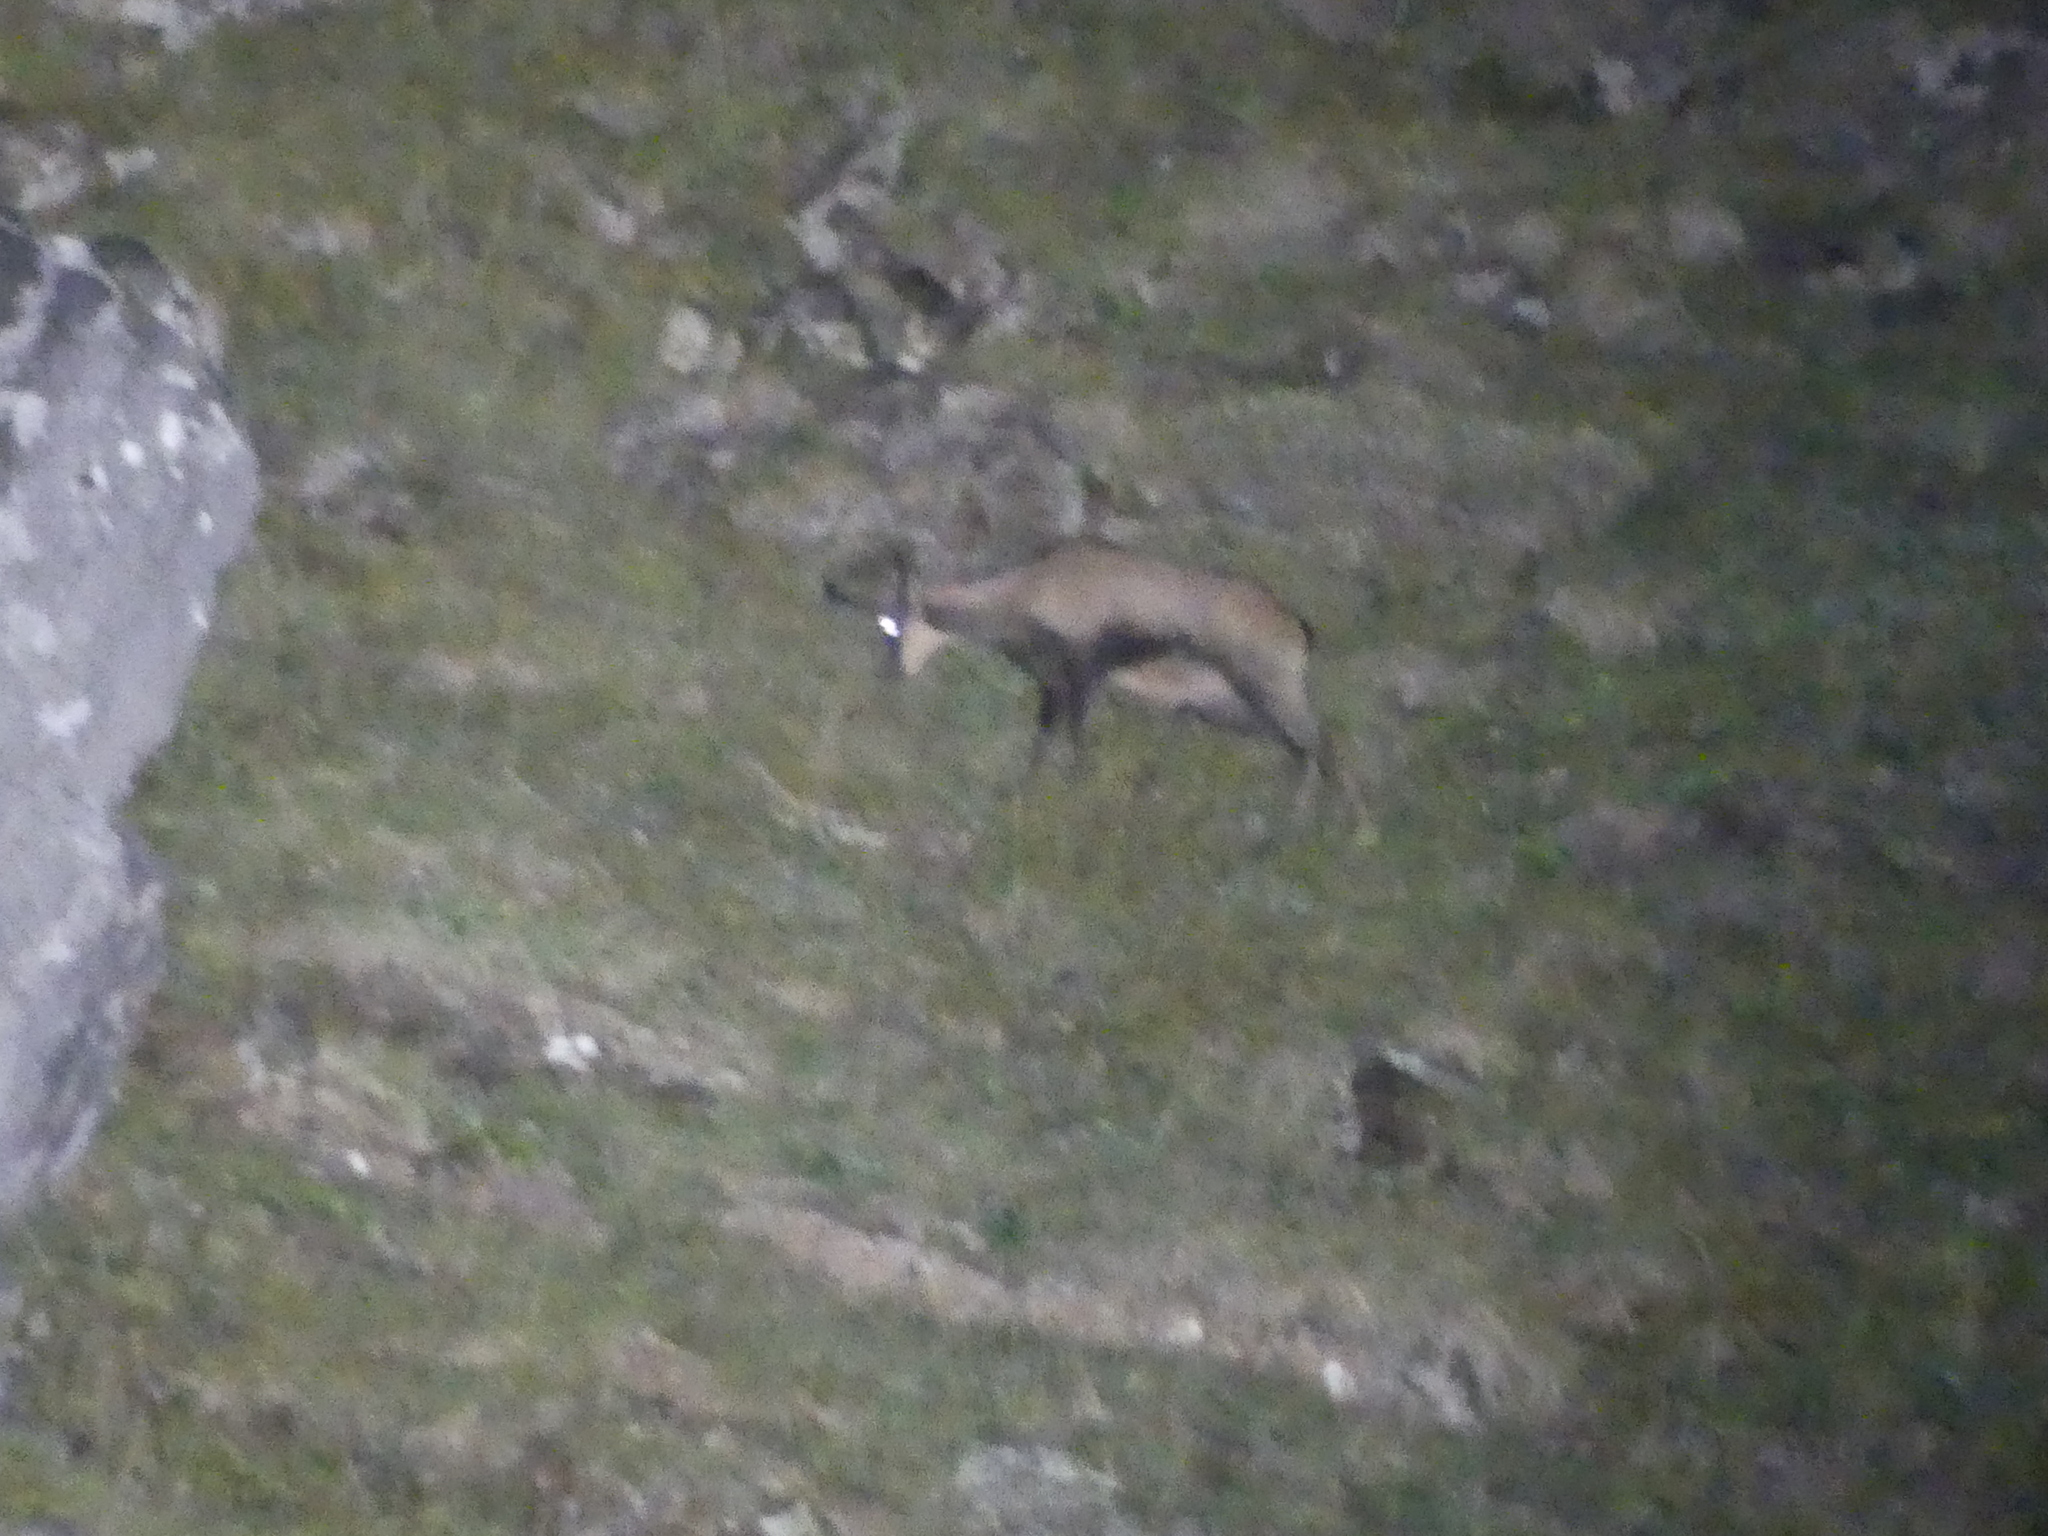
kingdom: Animalia
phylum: Chordata
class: Mammalia
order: Artiodactyla
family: Bovidae
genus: Rupicapra
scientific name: Rupicapra pyrenaica
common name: Pyrenean chamois
